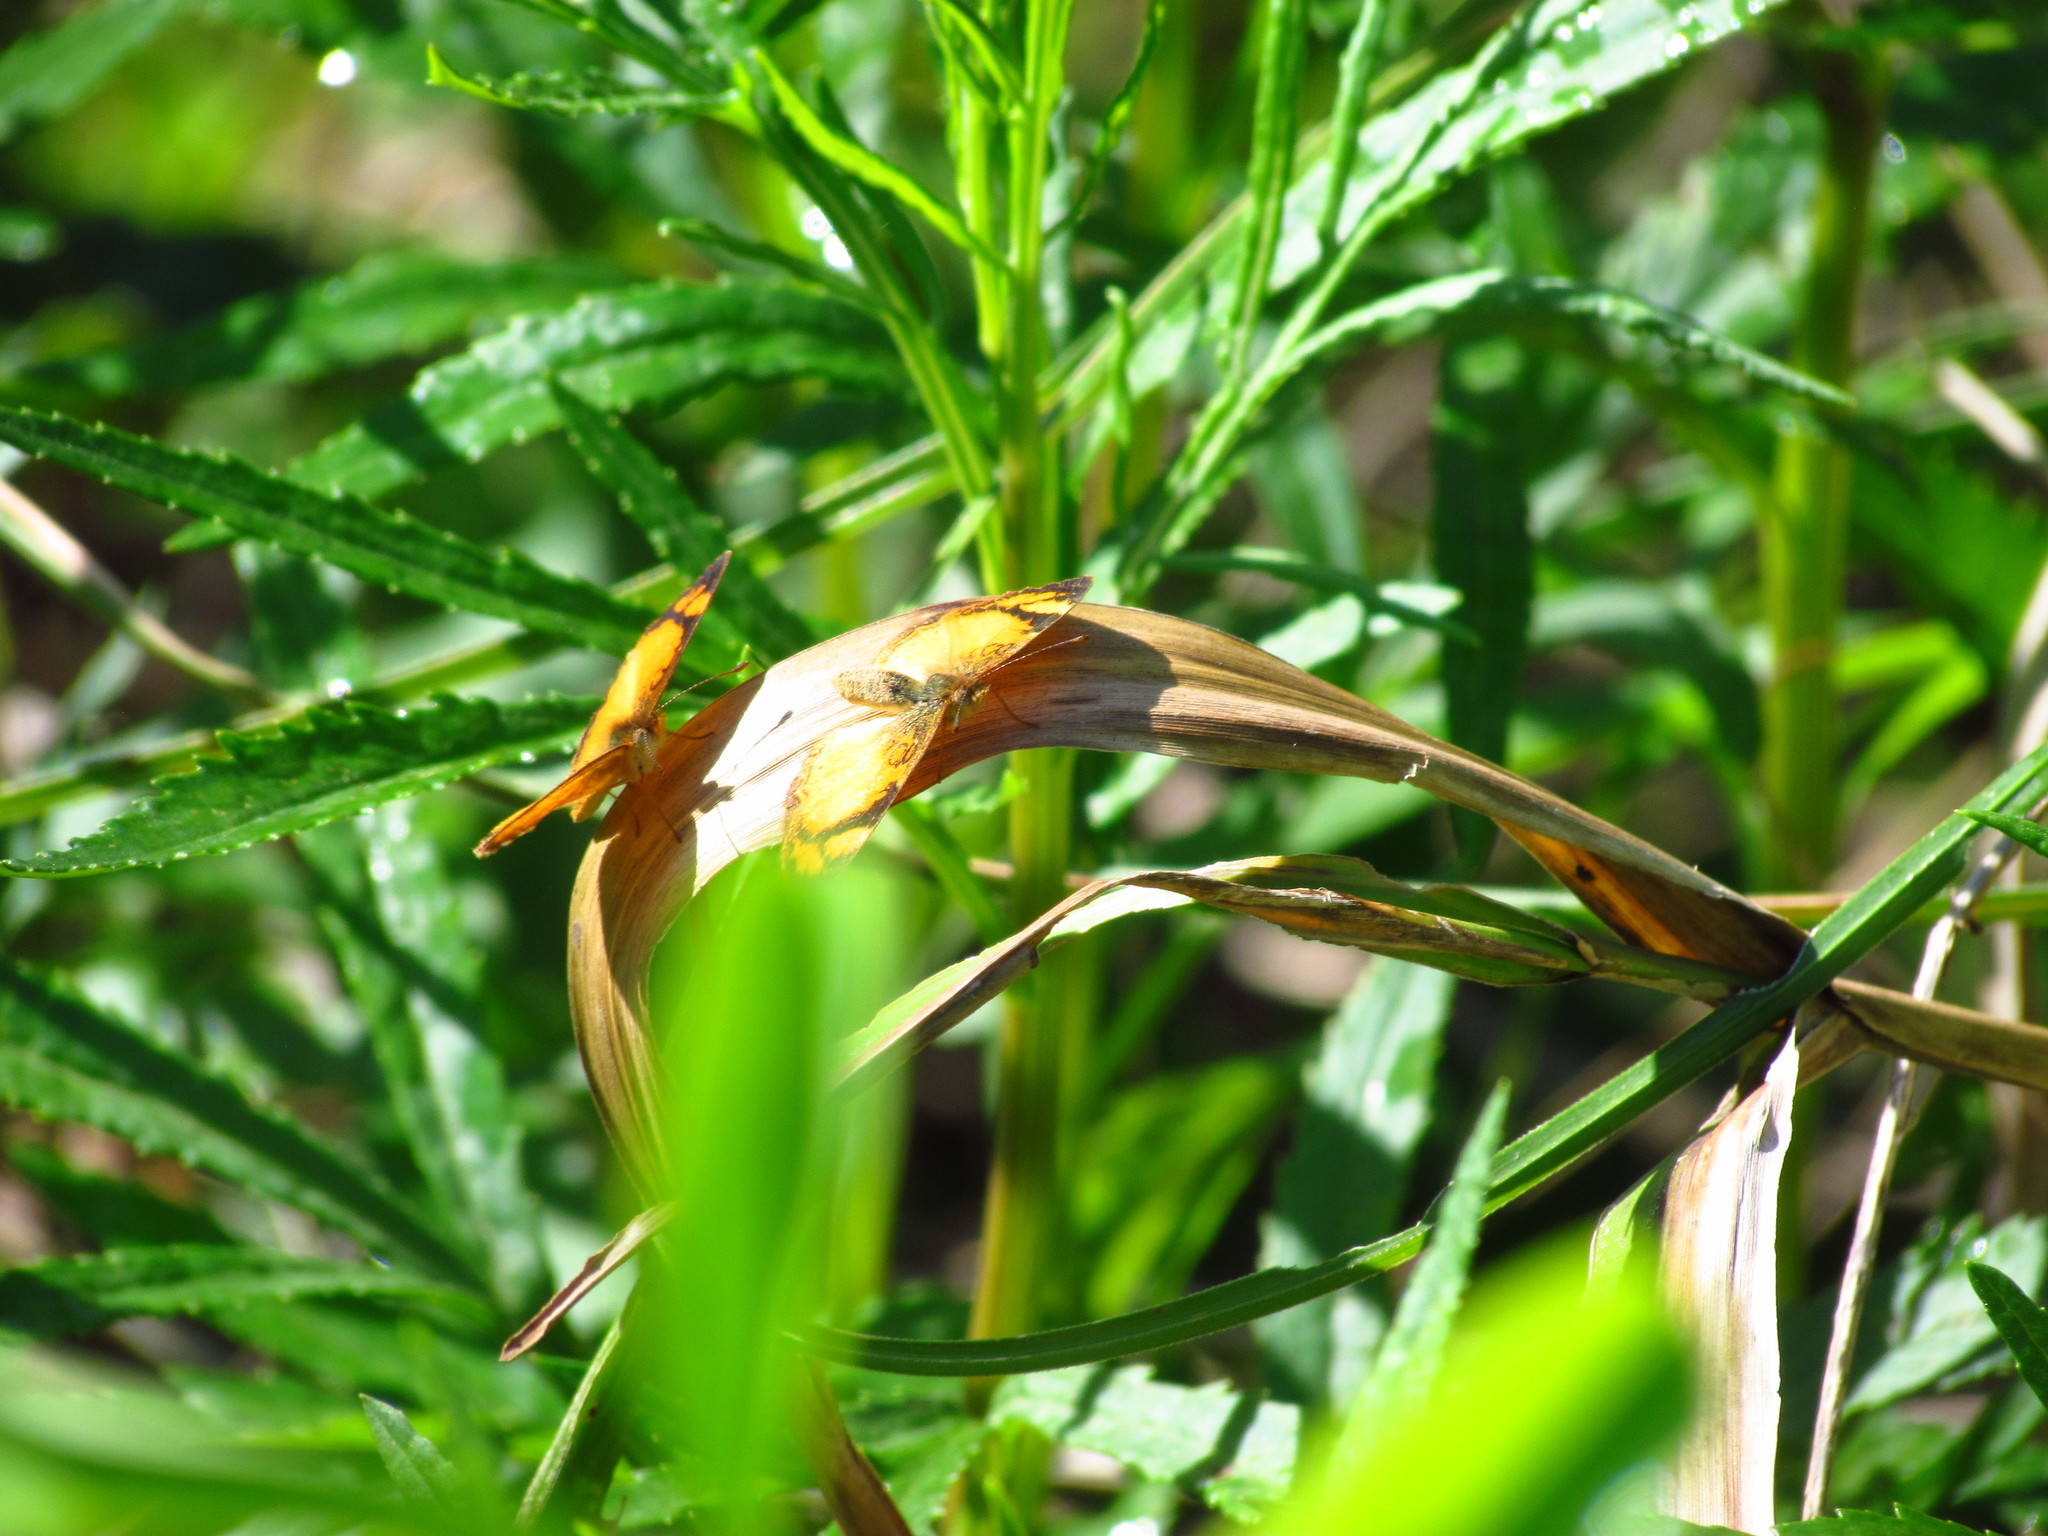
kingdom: Animalia
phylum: Arthropoda
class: Insecta
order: Lepidoptera
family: Nymphalidae
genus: Tegosa
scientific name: Tegosa claudina
